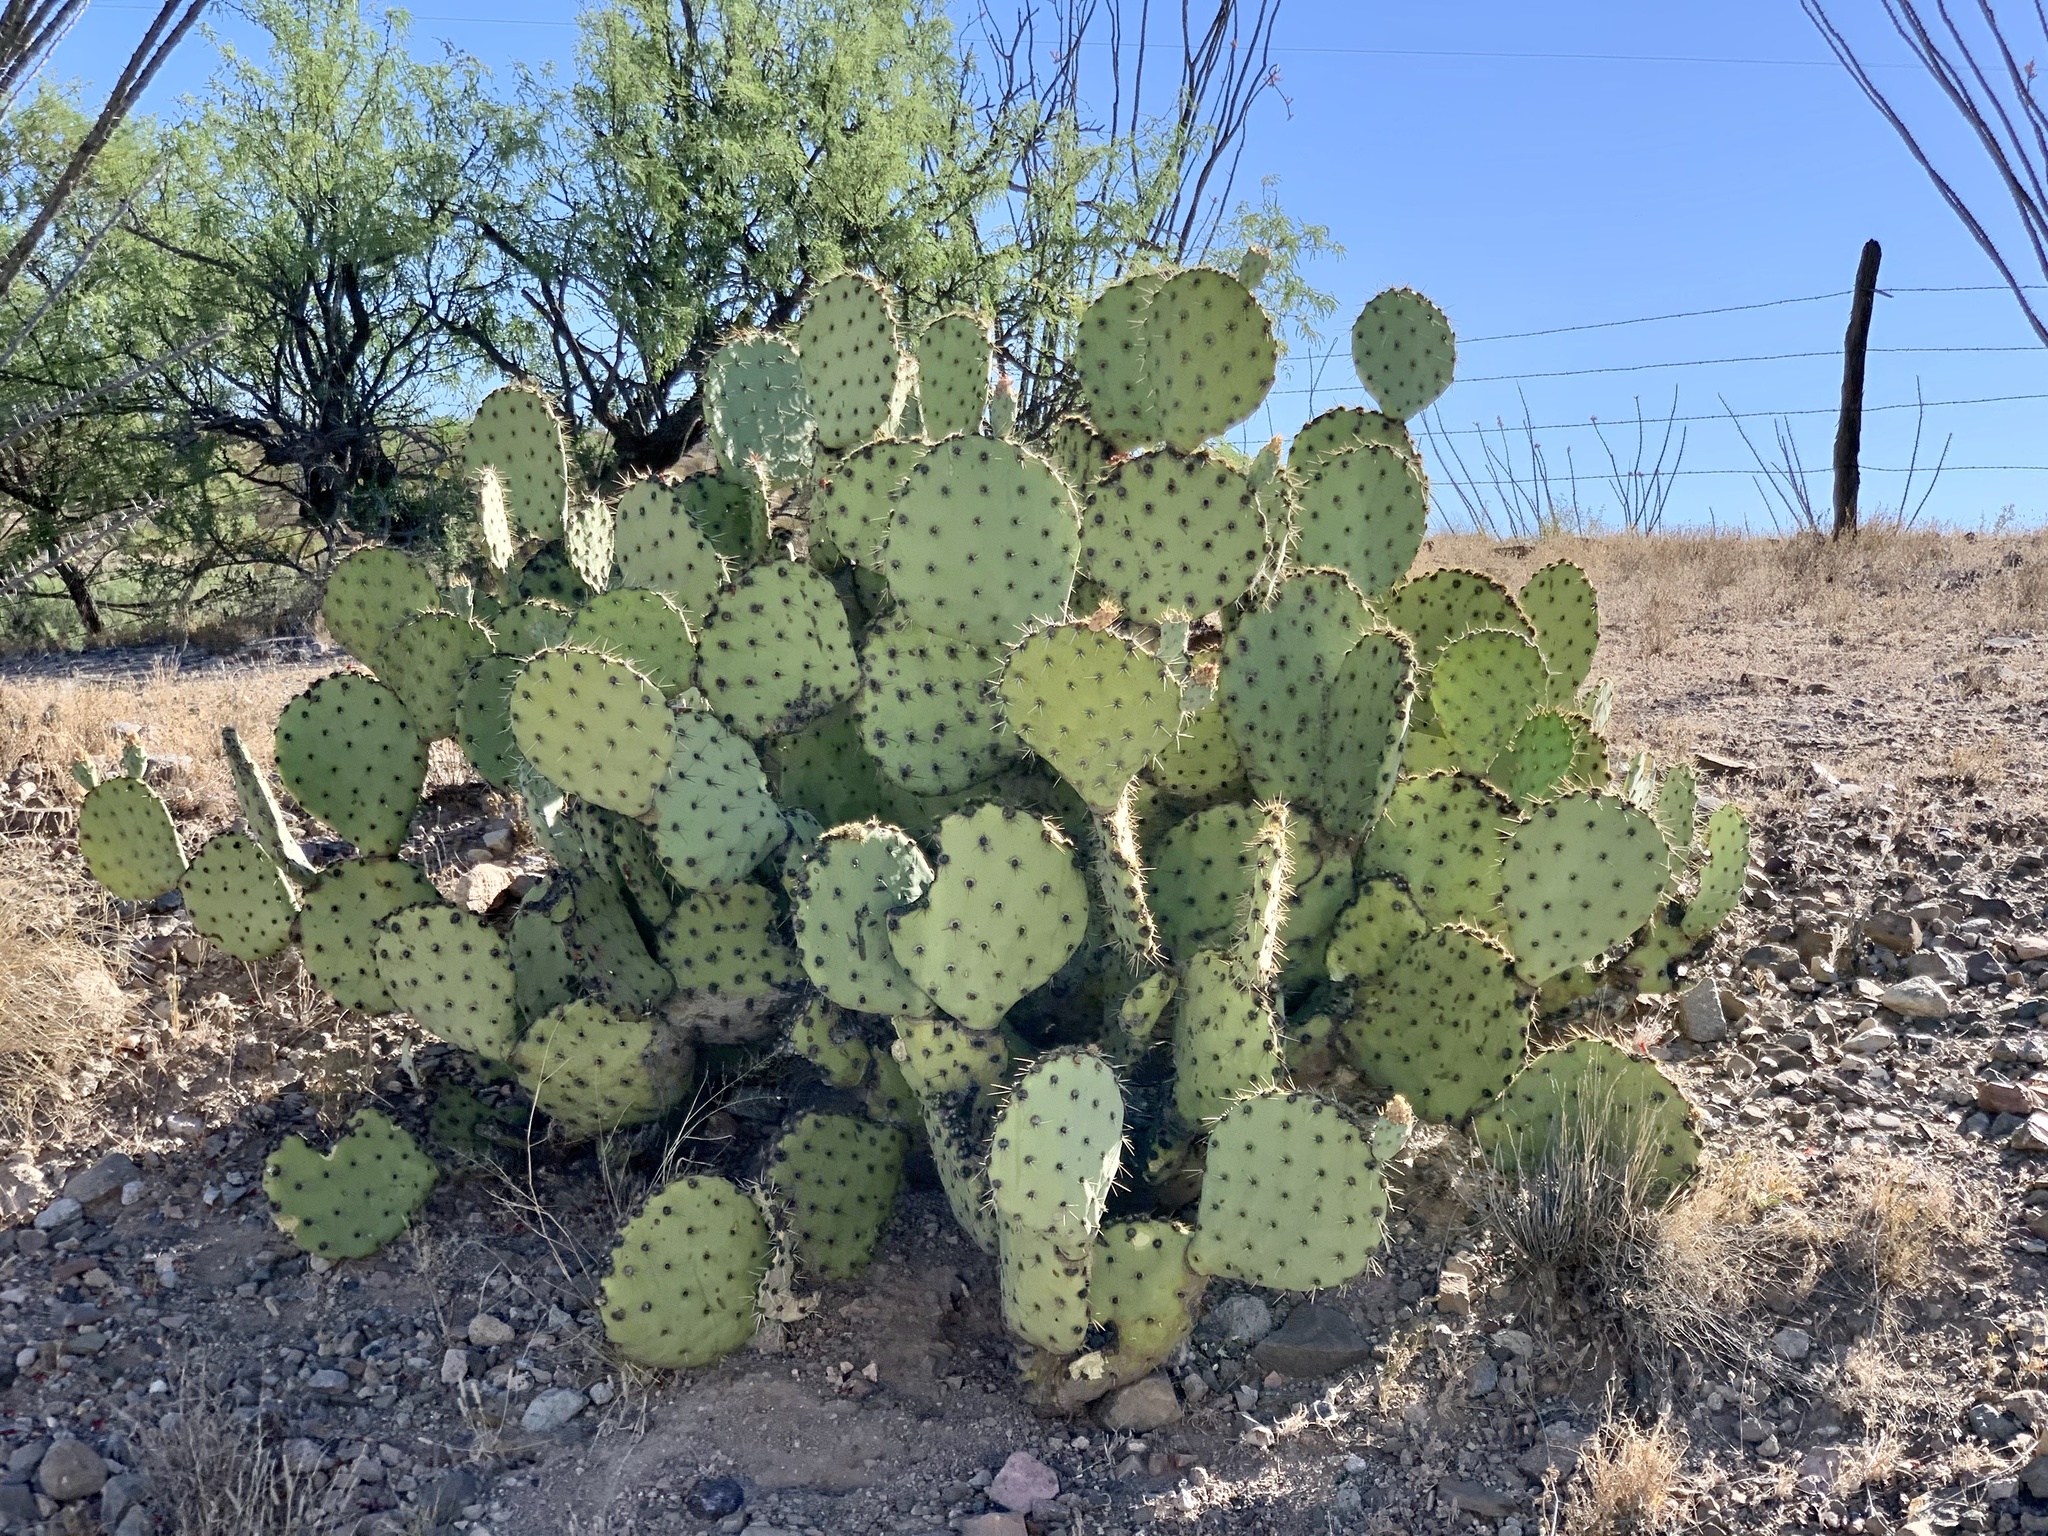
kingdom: Plantae
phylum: Tracheophyta
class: Magnoliopsida
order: Caryophyllales
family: Cactaceae
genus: Opuntia
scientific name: Opuntia engelmannii
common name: Cactus-apple
